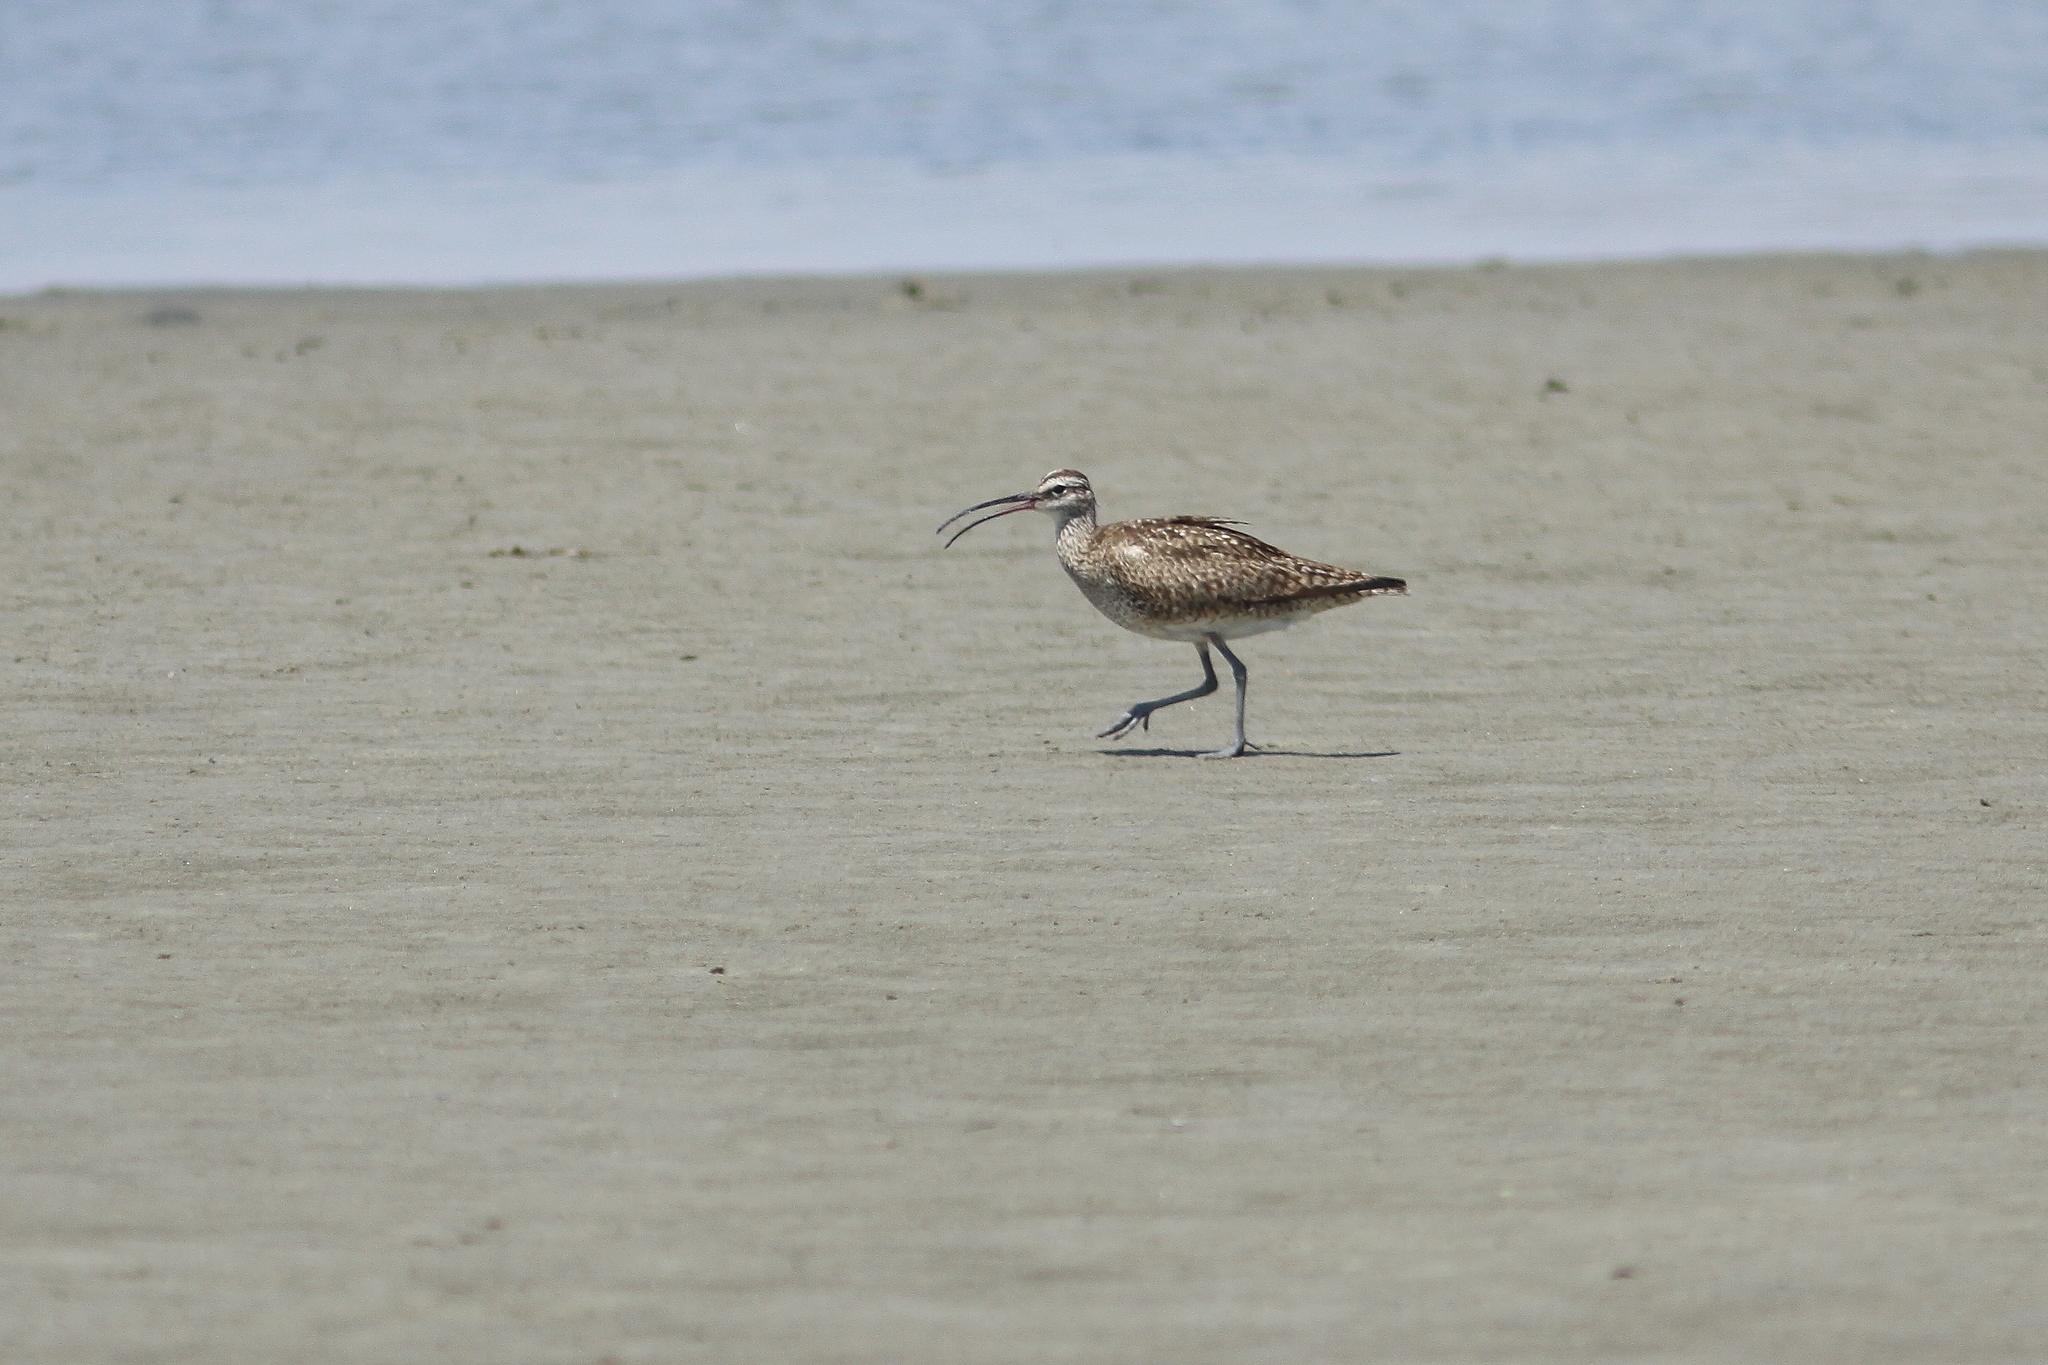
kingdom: Animalia
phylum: Chordata
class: Aves
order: Charadriiformes
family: Scolopacidae
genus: Numenius
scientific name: Numenius phaeopus
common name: Whimbrel
